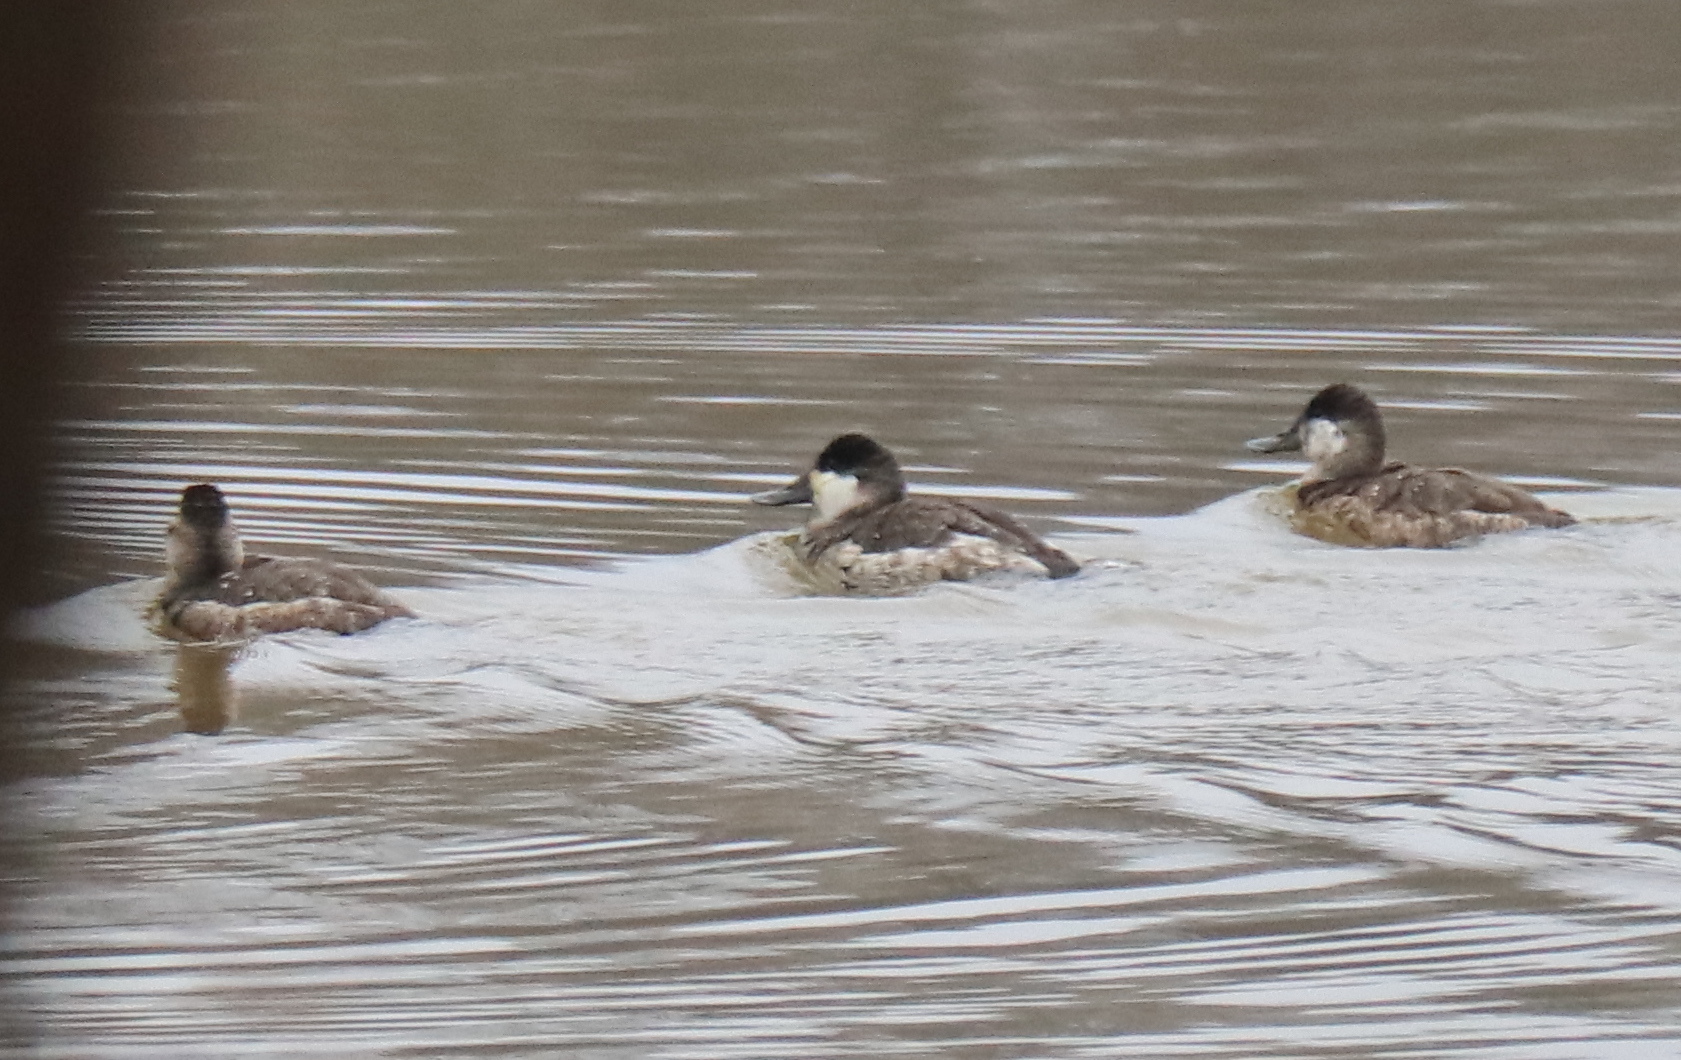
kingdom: Animalia
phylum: Chordata
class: Aves
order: Anseriformes
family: Anatidae
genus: Oxyura
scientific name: Oxyura jamaicensis
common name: Ruddy duck
